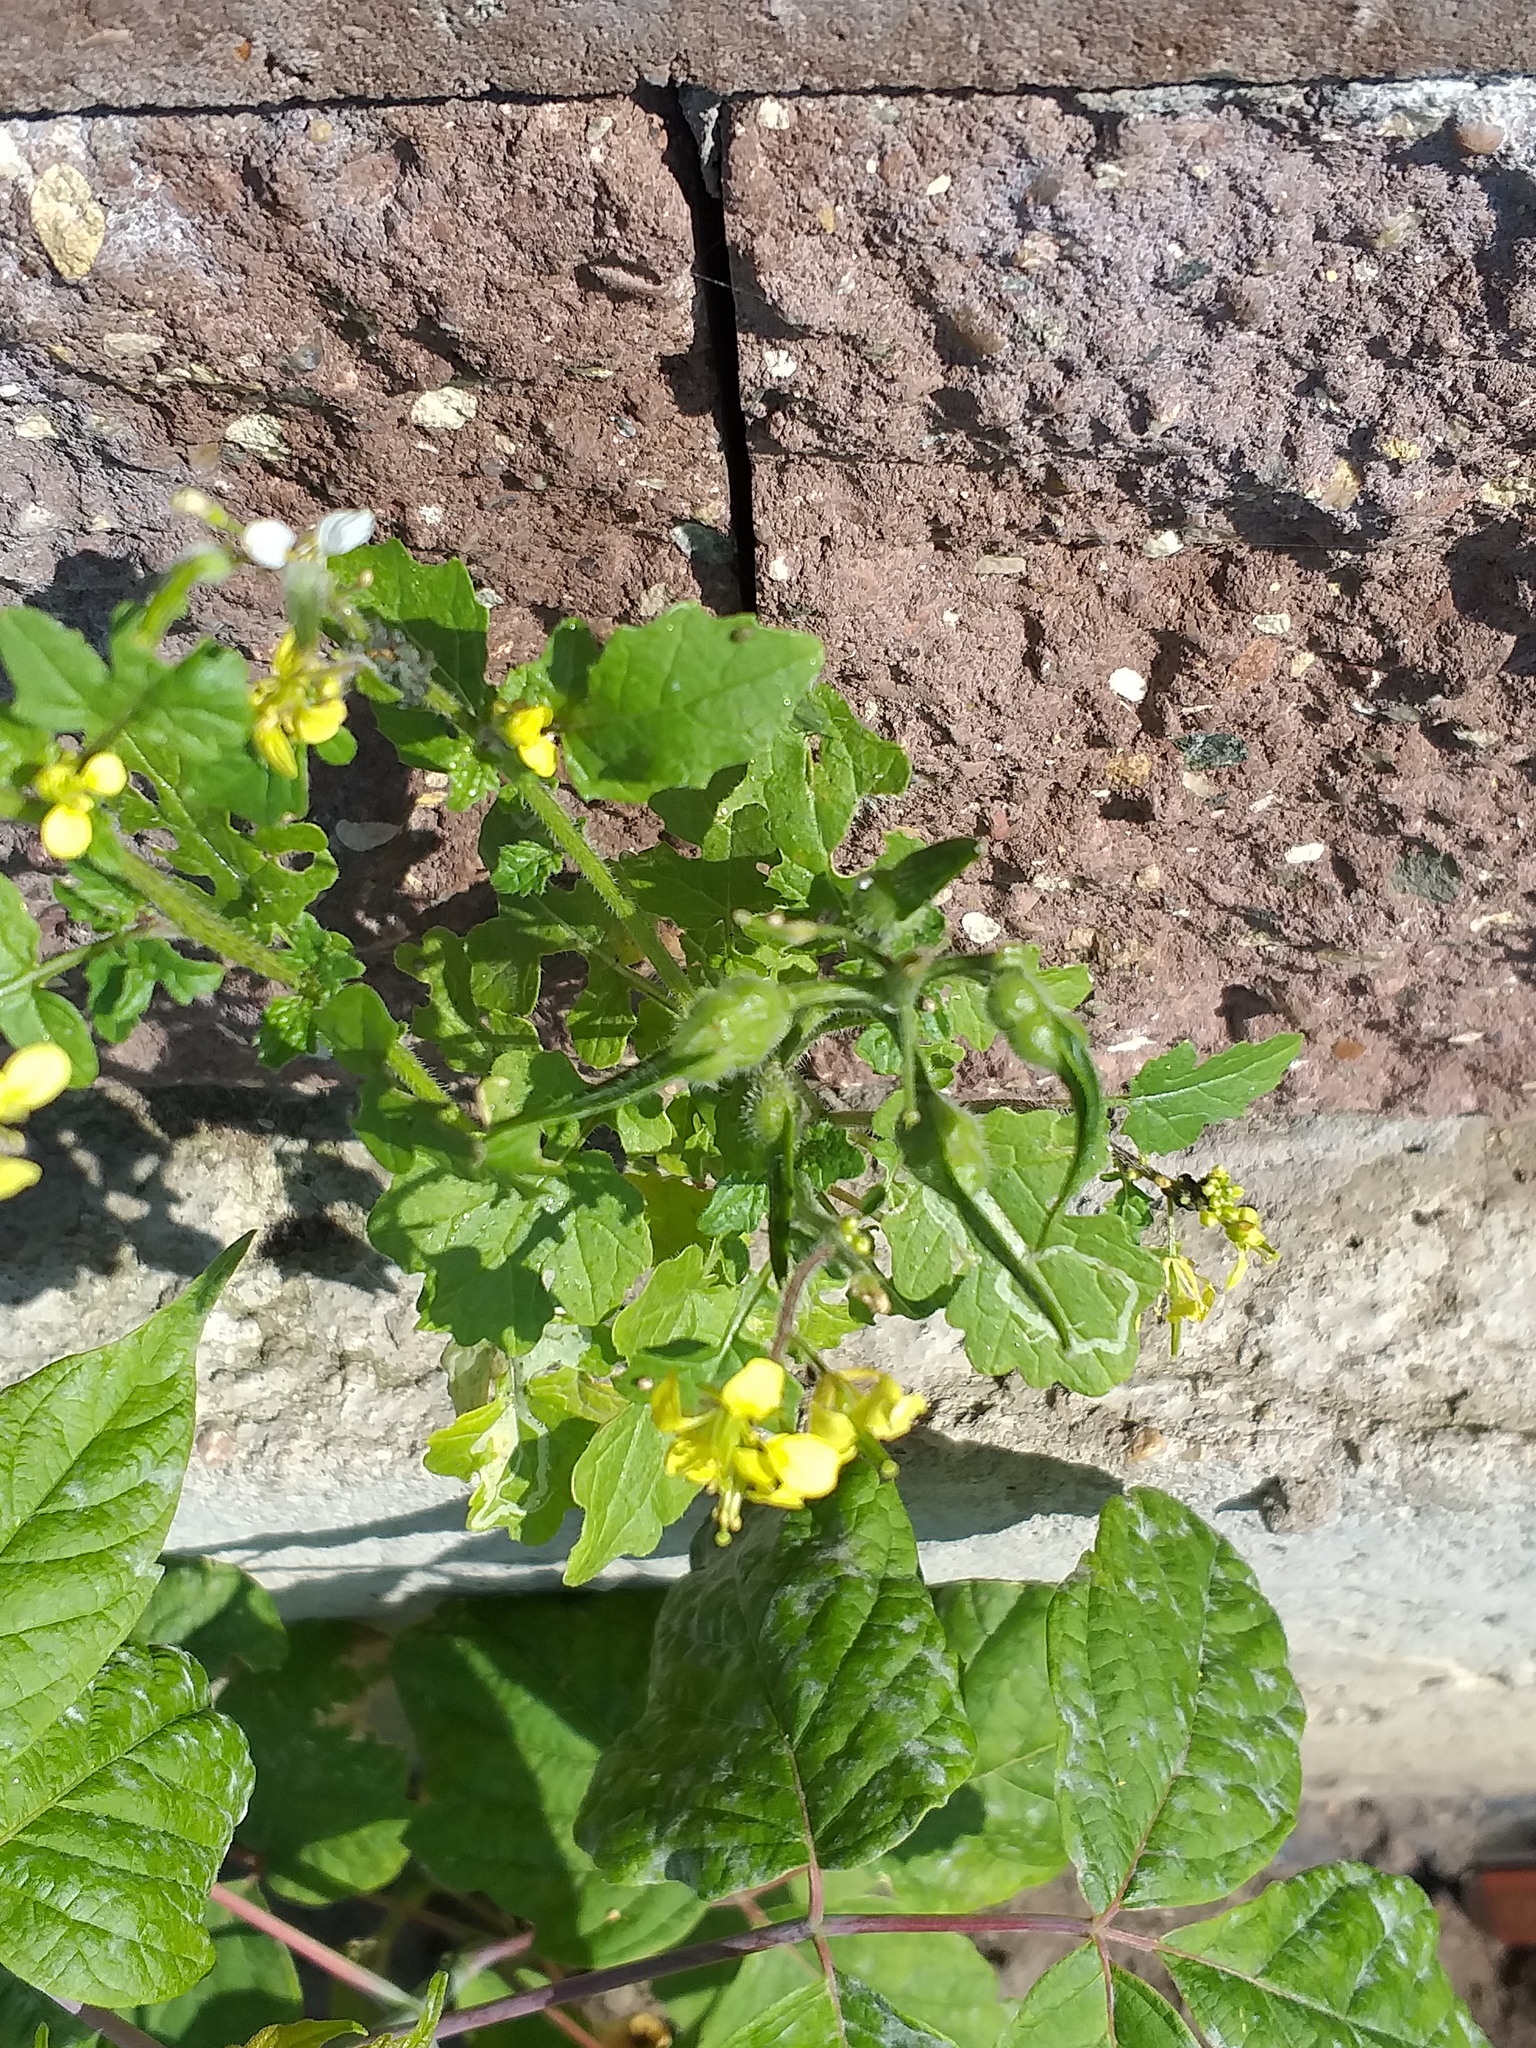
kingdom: Plantae
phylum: Tracheophyta
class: Magnoliopsida
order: Brassicales
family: Brassicaceae
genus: Sinapis
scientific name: Sinapis alba
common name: White mustard
